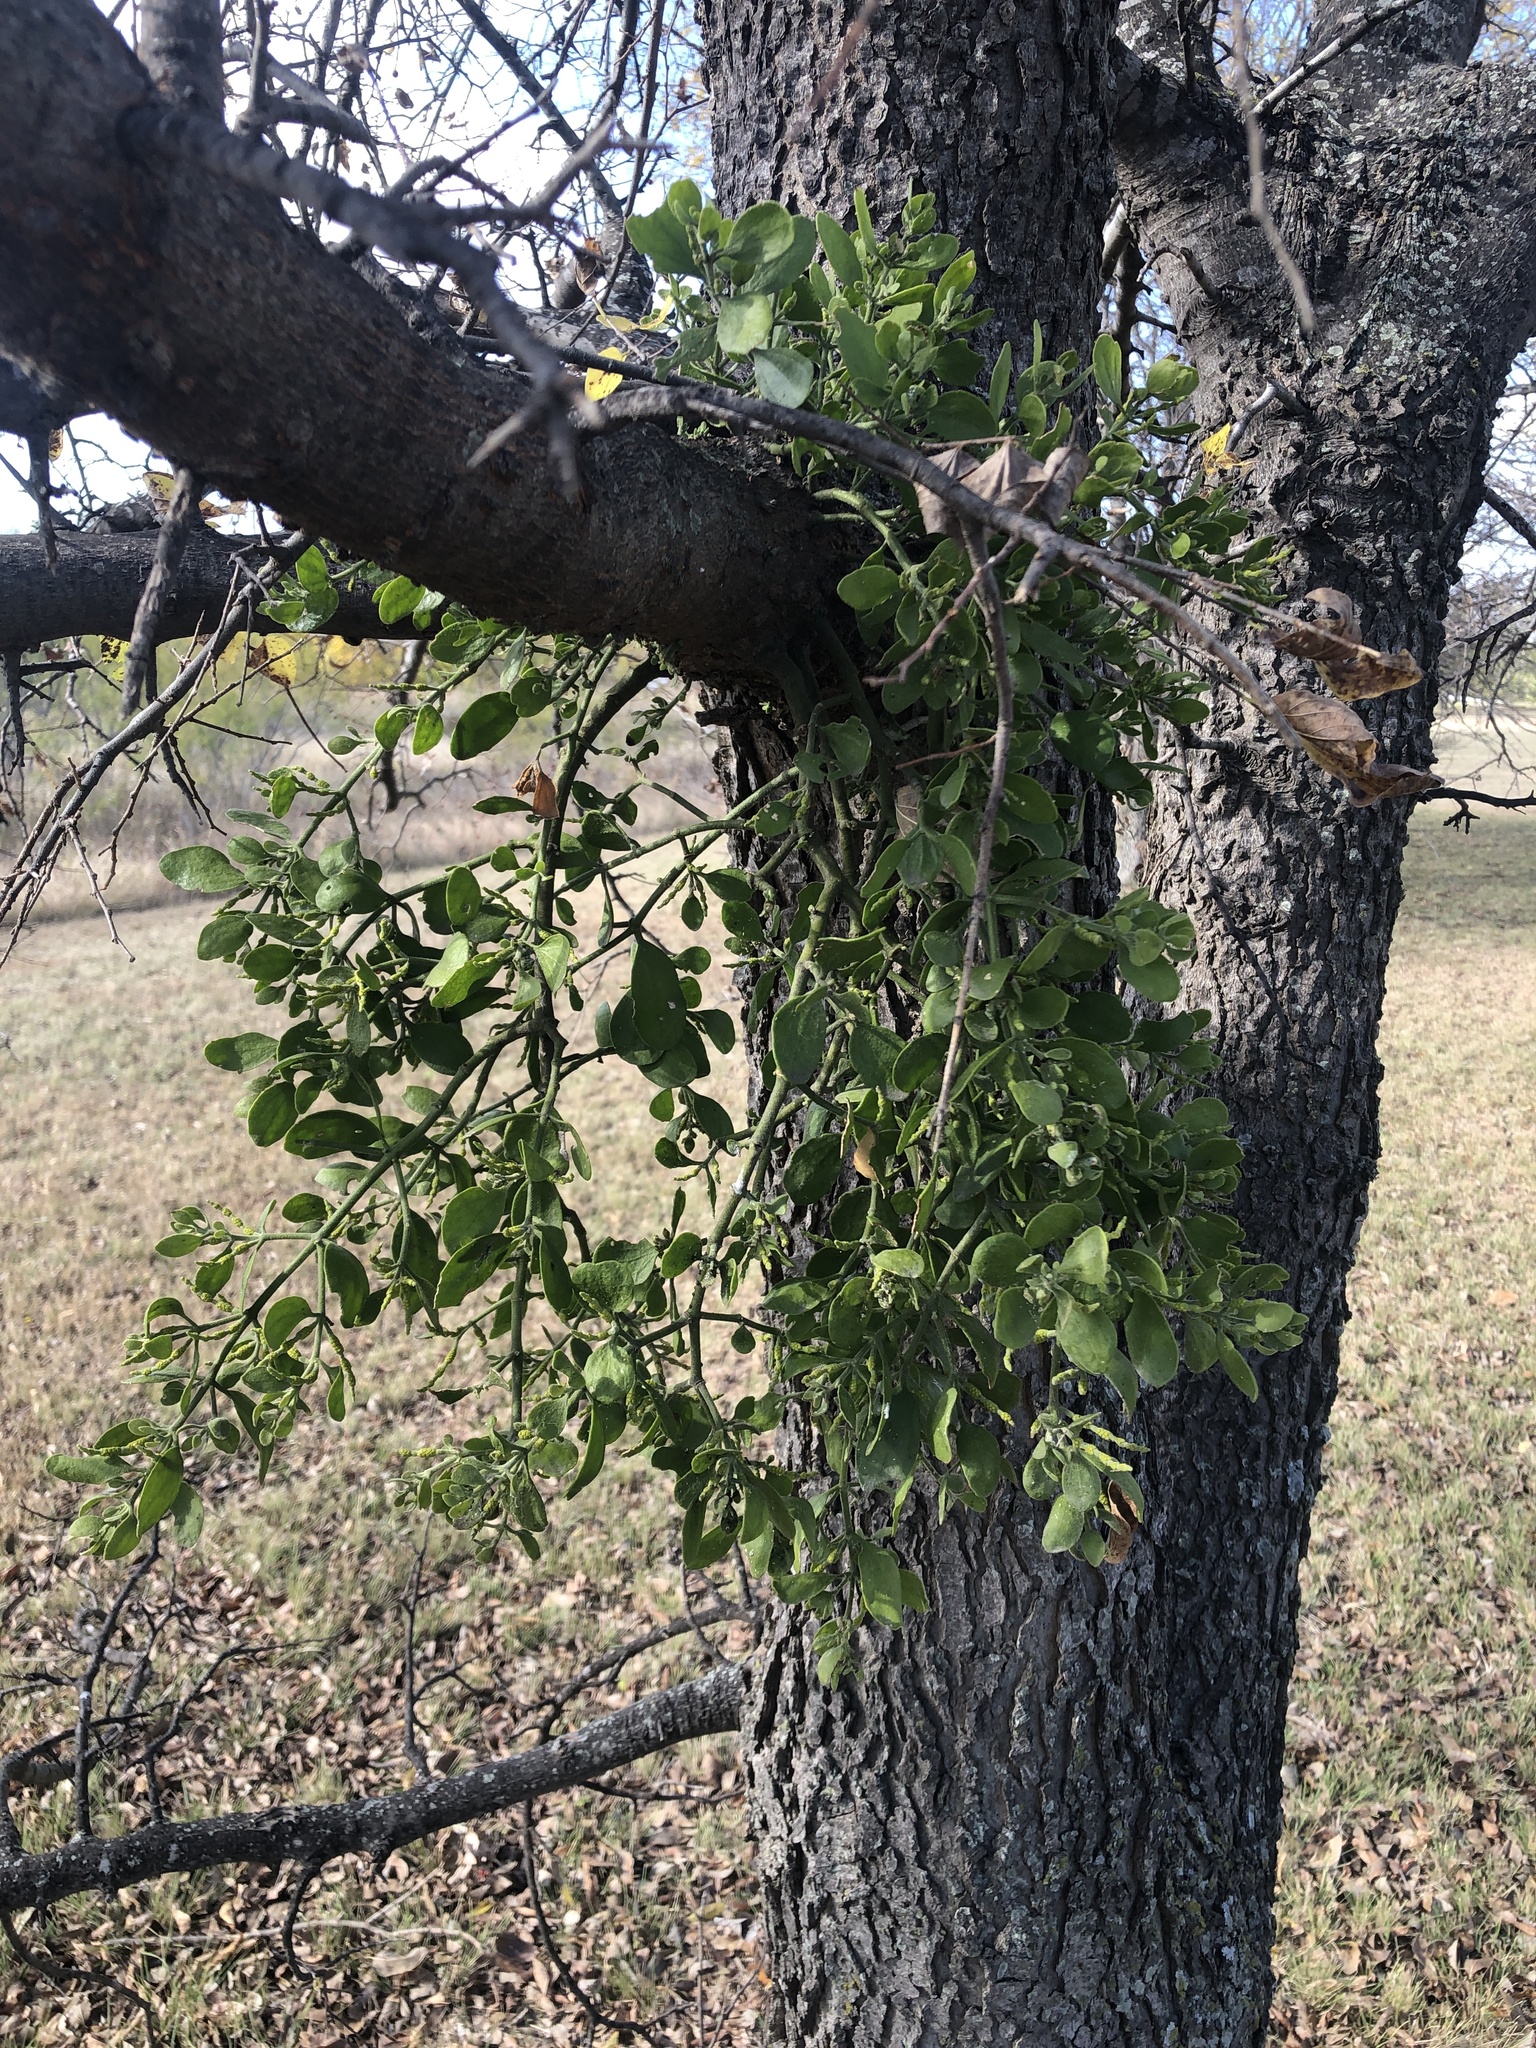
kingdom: Plantae
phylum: Tracheophyta
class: Magnoliopsida
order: Santalales
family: Viscaceae
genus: Phoradendron
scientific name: Phoradendron leucarpum
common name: Pacific mistletoe
